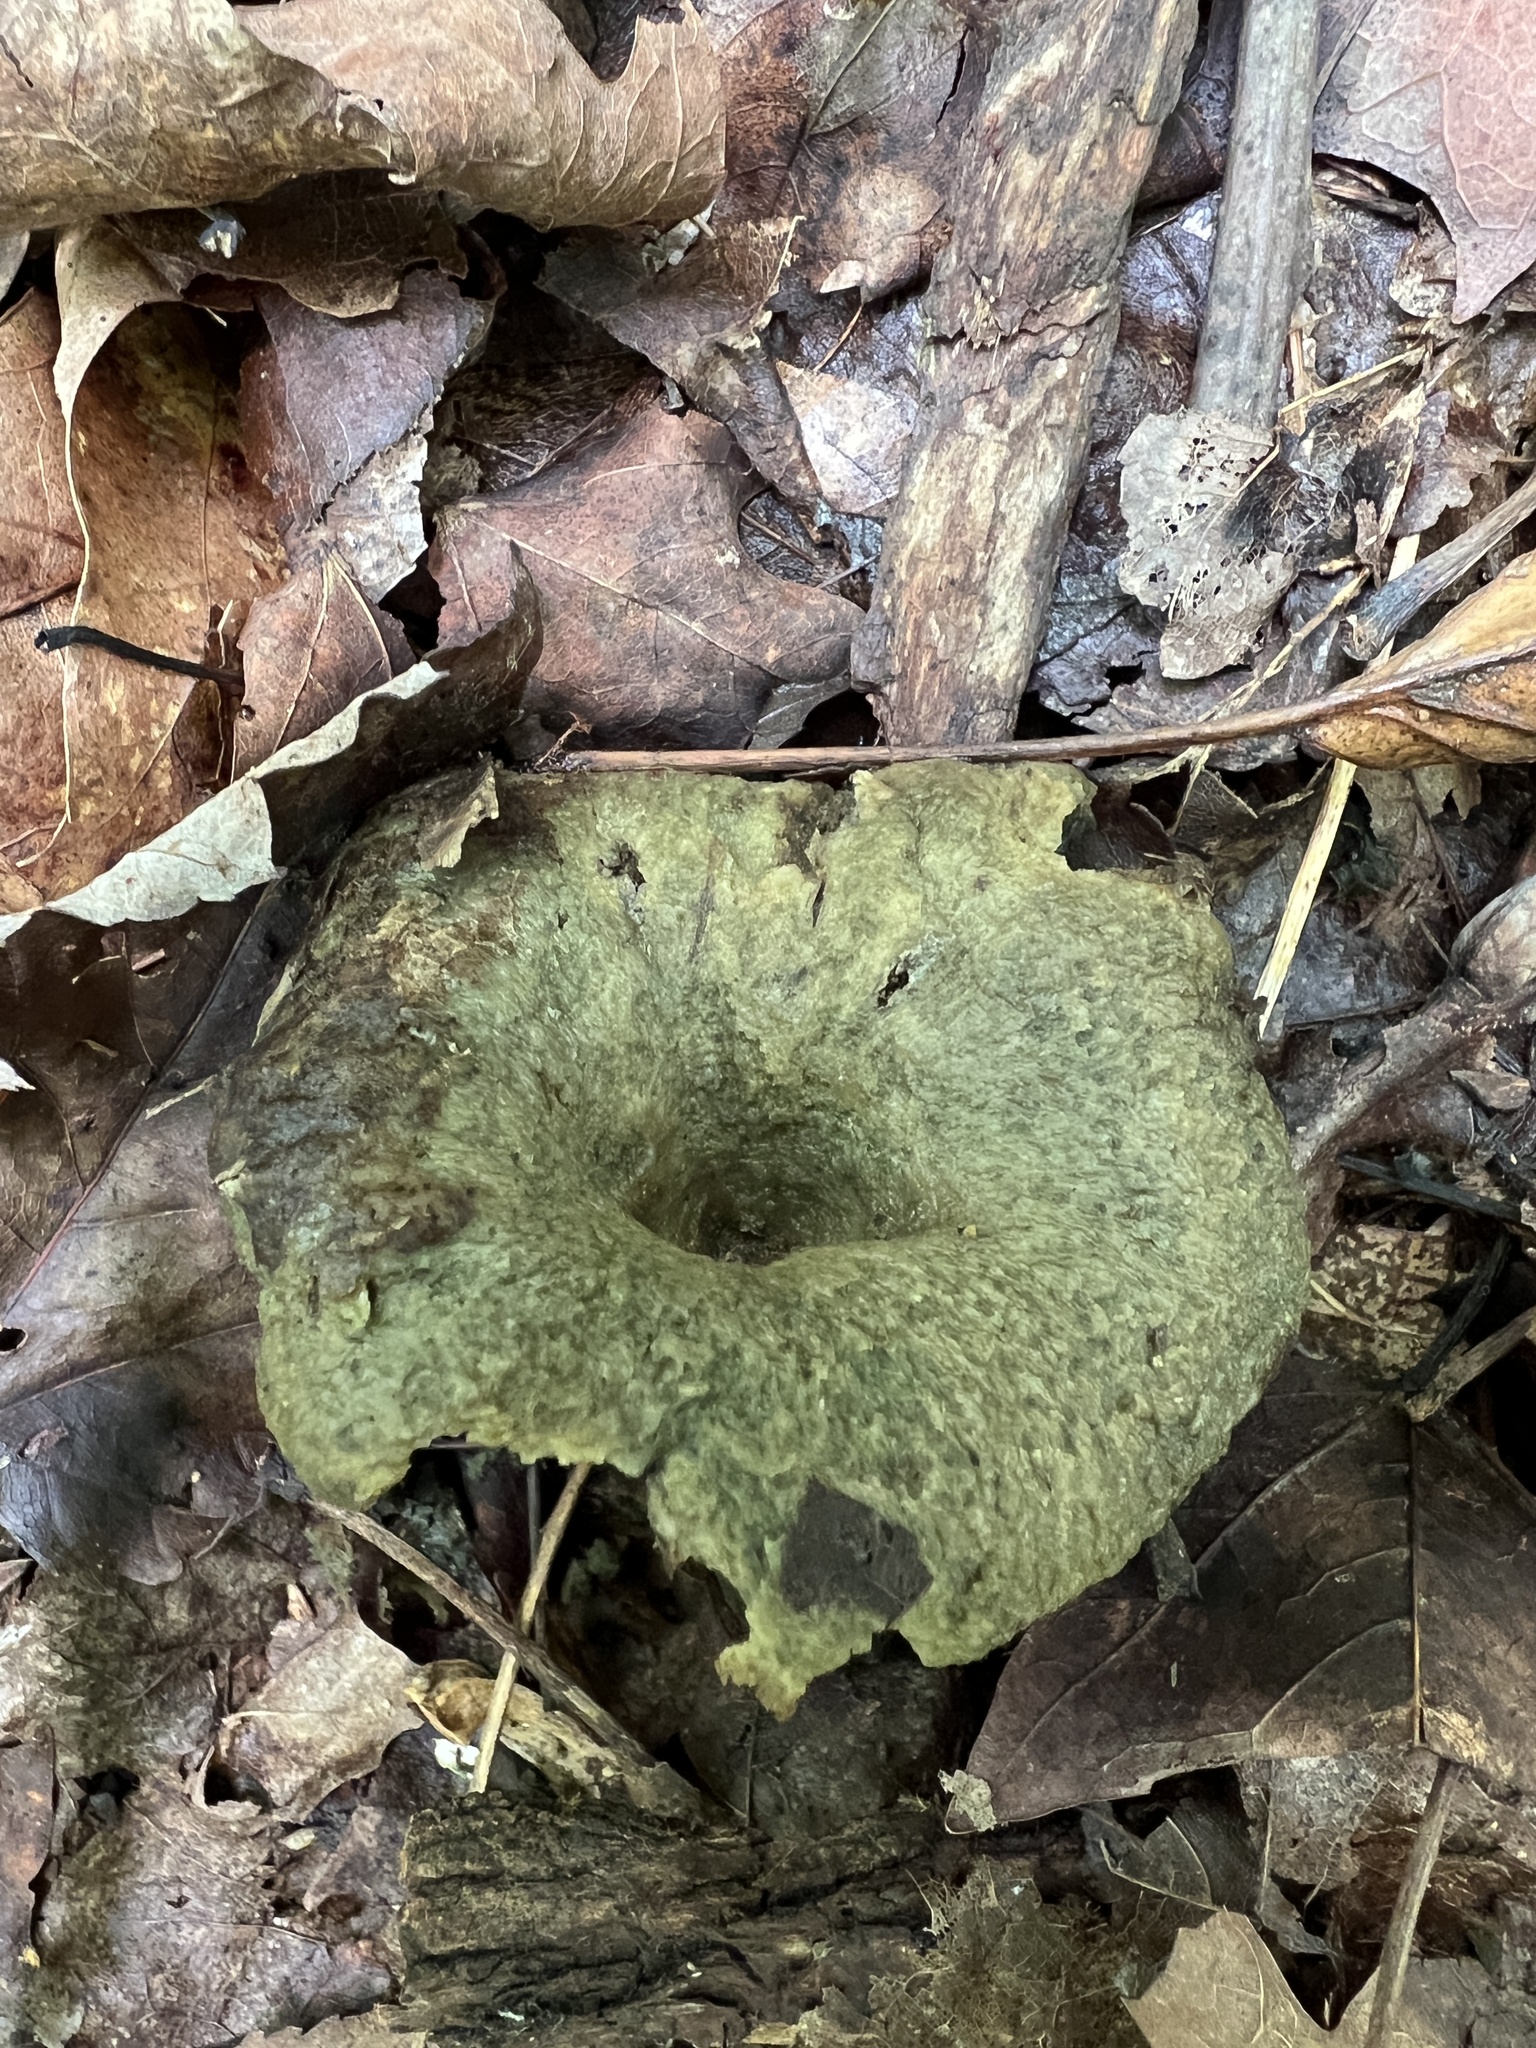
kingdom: Fungi
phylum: Basidiomycota
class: Agaricomycetes
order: Russulales
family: Russulaceae
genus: Lactarius
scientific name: Lactarius indigo
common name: Indigo milk cap
